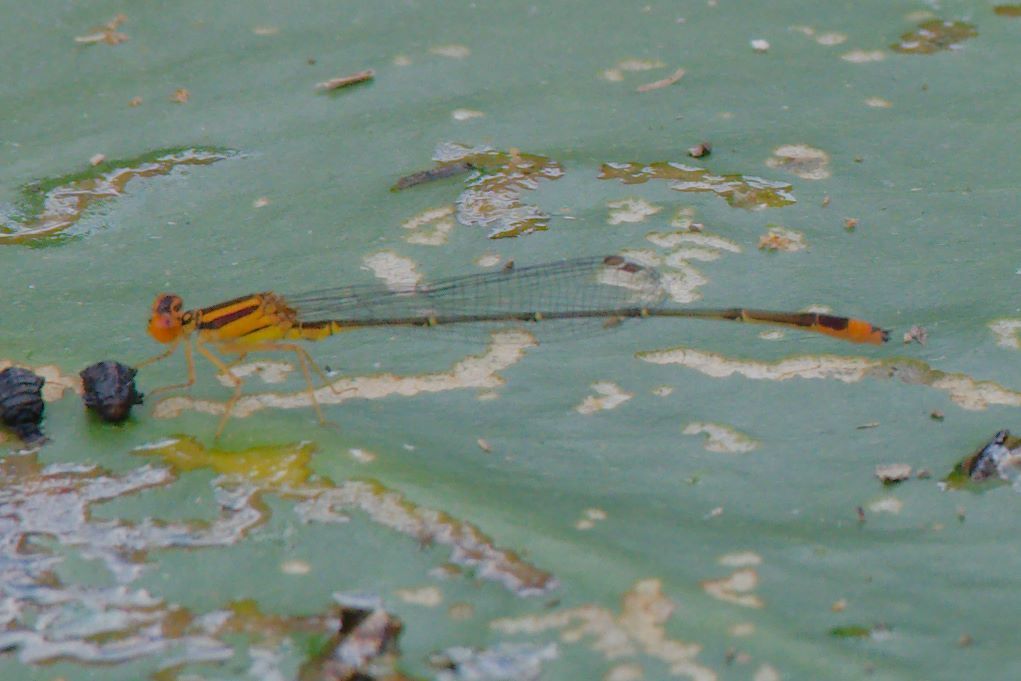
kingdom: Animalia
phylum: Arthropoda
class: Insecta
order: Odonata
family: Coenagrionidae
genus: Enallagma
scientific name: Enallagma pollutum
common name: Florida bluet
